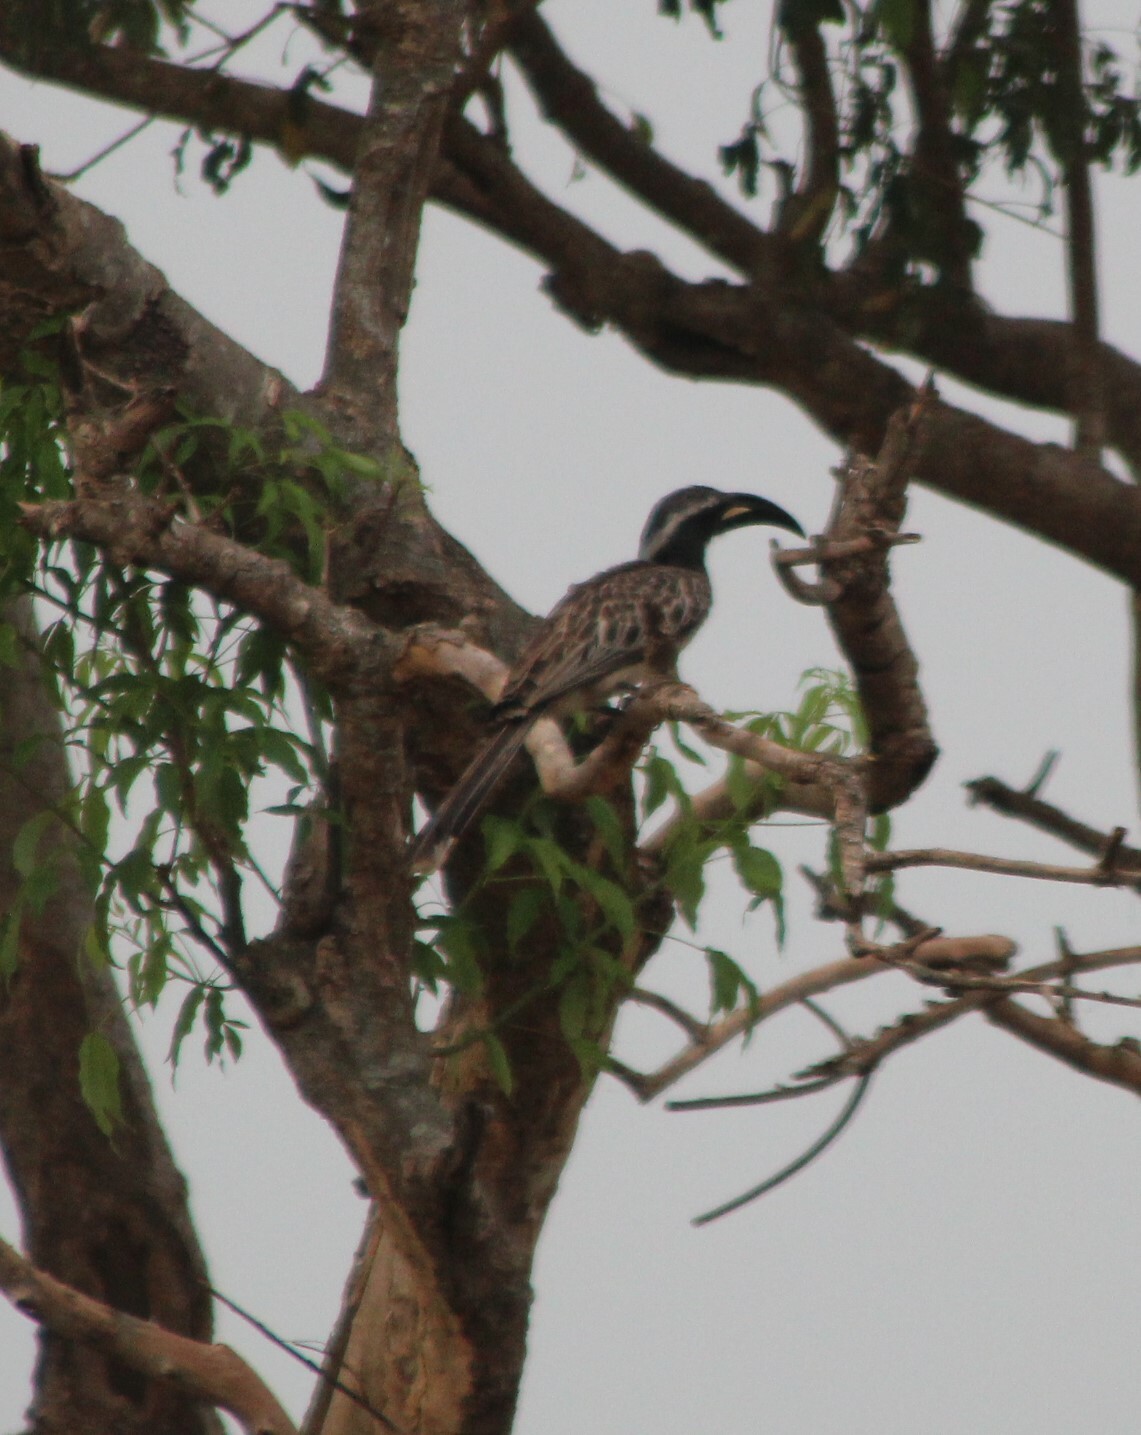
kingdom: Animalia
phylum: Chordata
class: Aves
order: Bucerotiformes
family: Bucerotidae
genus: Lophoceros
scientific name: Lophoceros nasutus
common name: African grey hornbill
